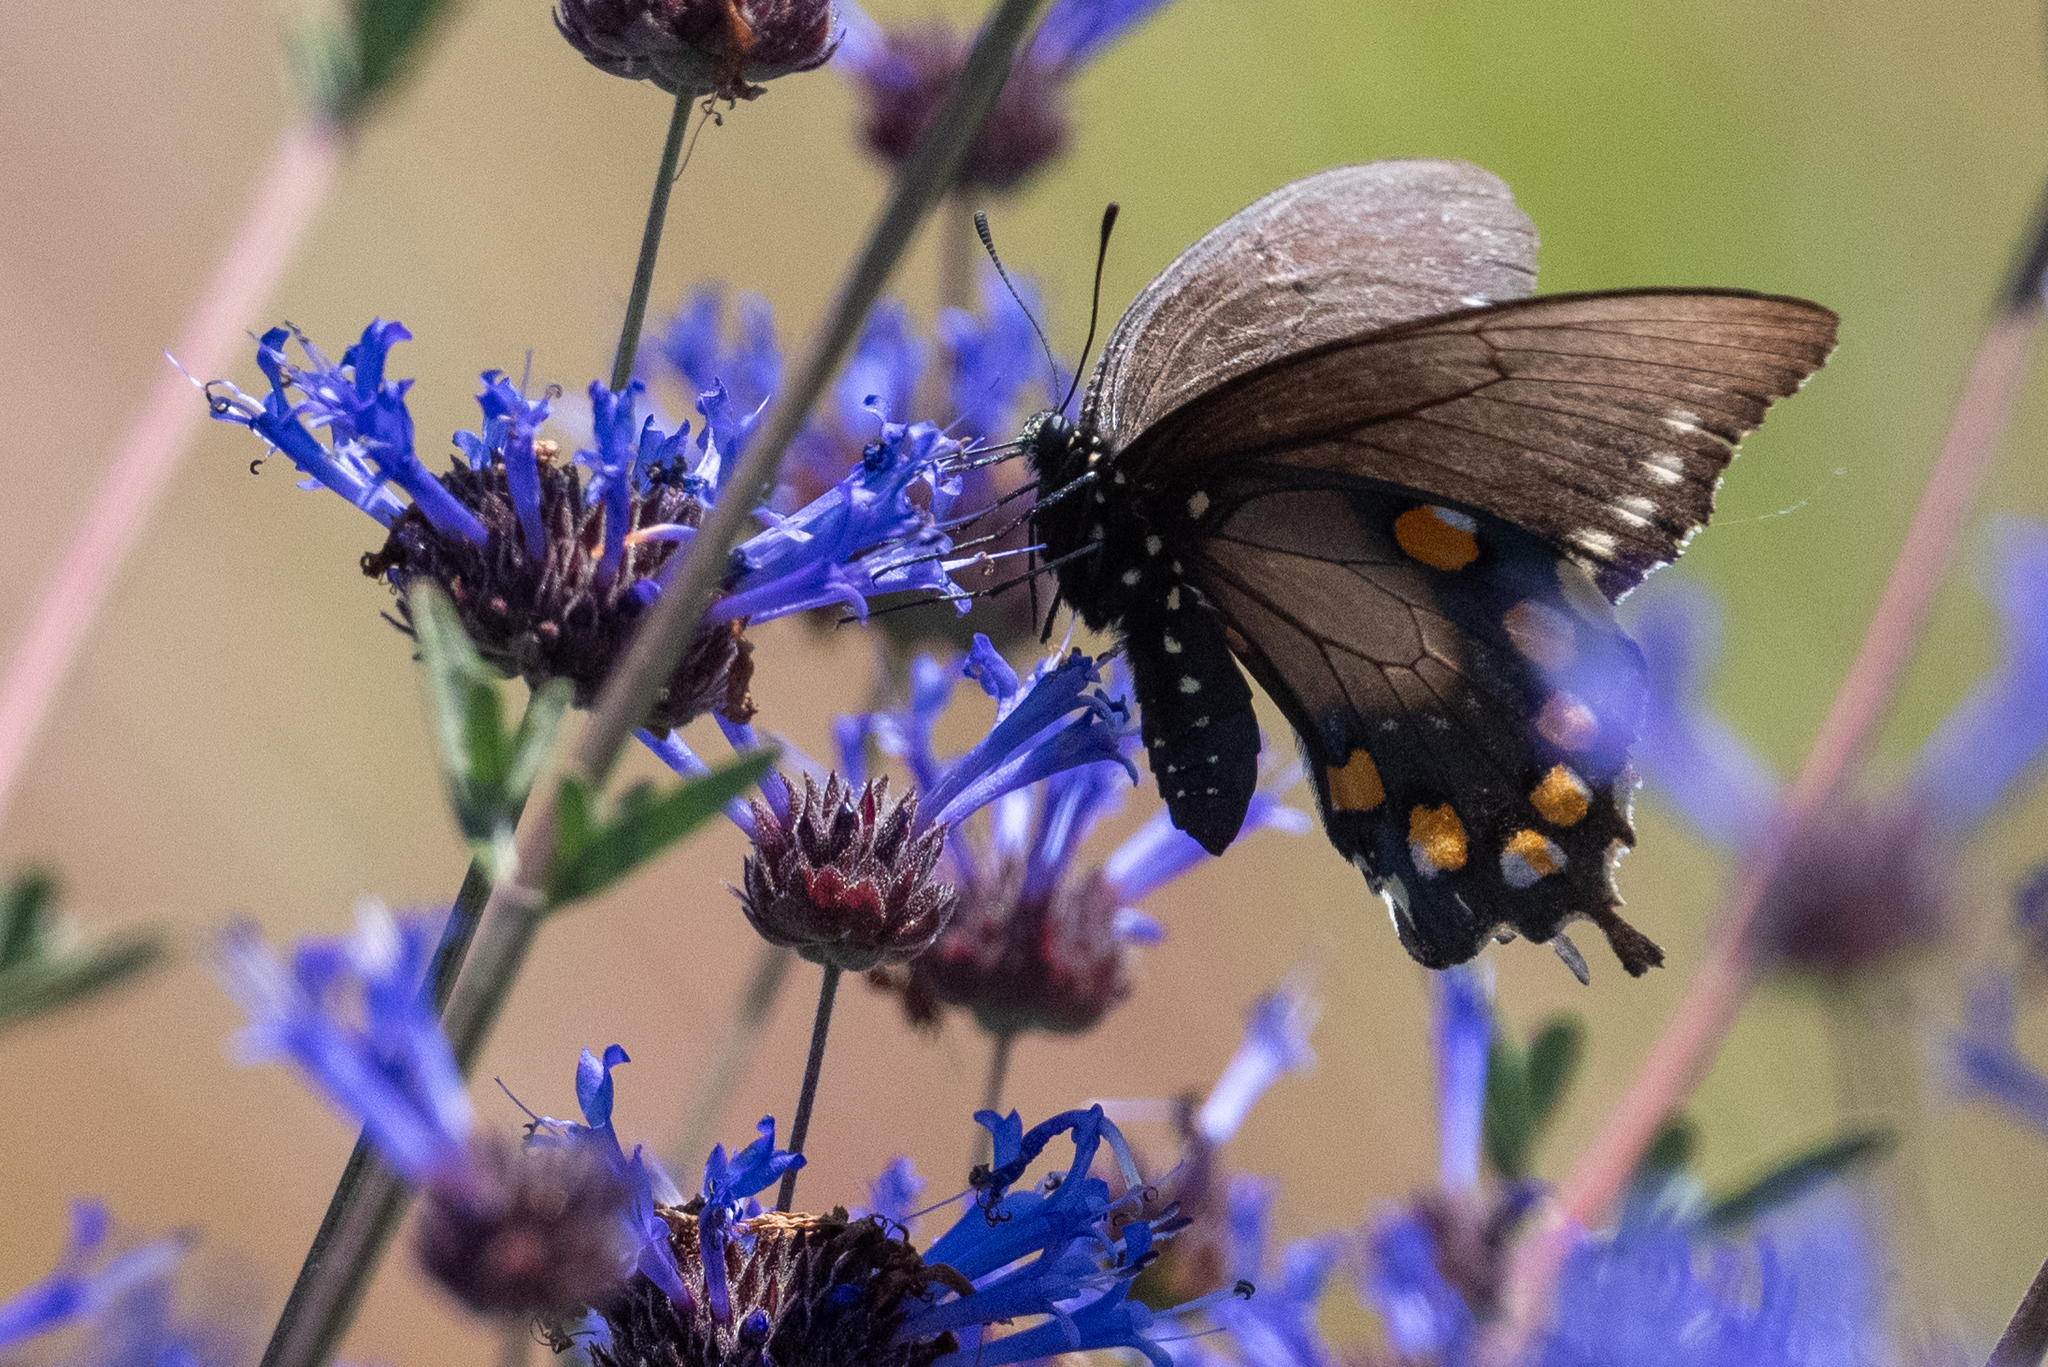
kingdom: Animalia
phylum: Arthropoda
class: Insecta
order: Lepidoptera
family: Papilionidae
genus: Battus
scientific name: Battus philenor
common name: Pipevine swallowtail
